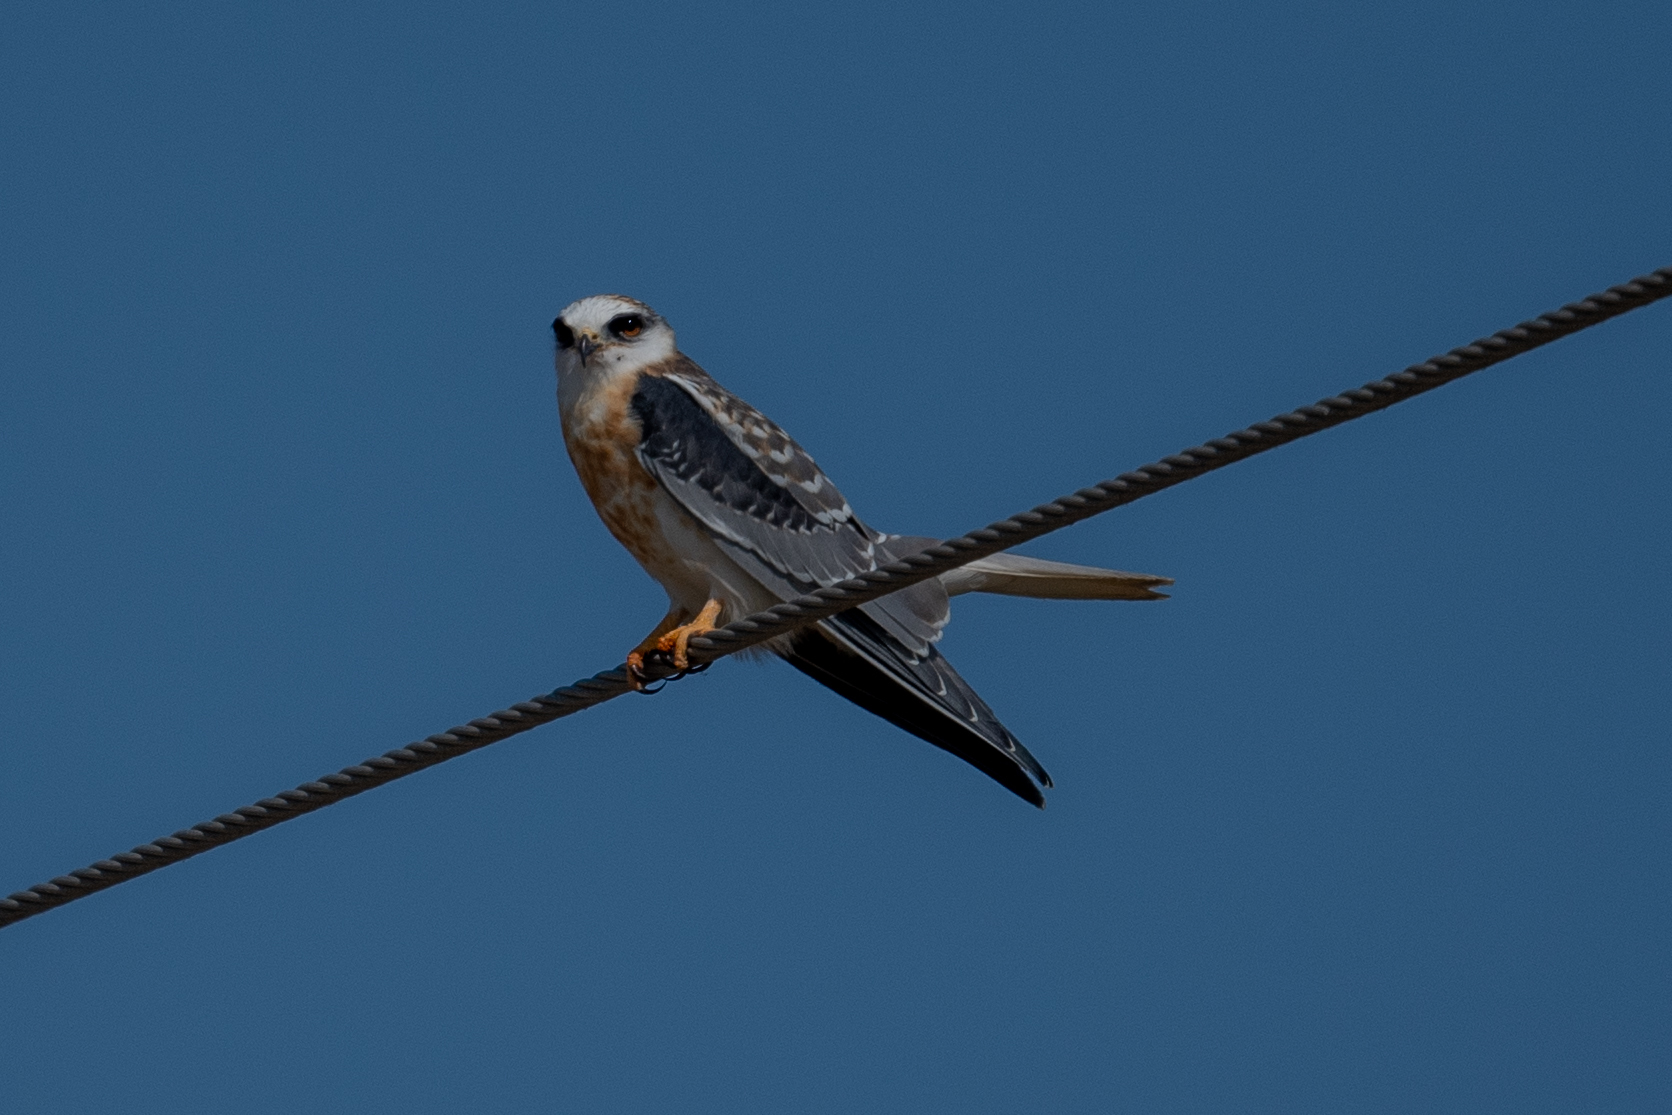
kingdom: Animalia
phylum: Chordata
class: Aves
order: Accipitriformes
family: Accipitridae
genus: Elanus
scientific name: Elanus leucurus
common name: White-tailed kite
